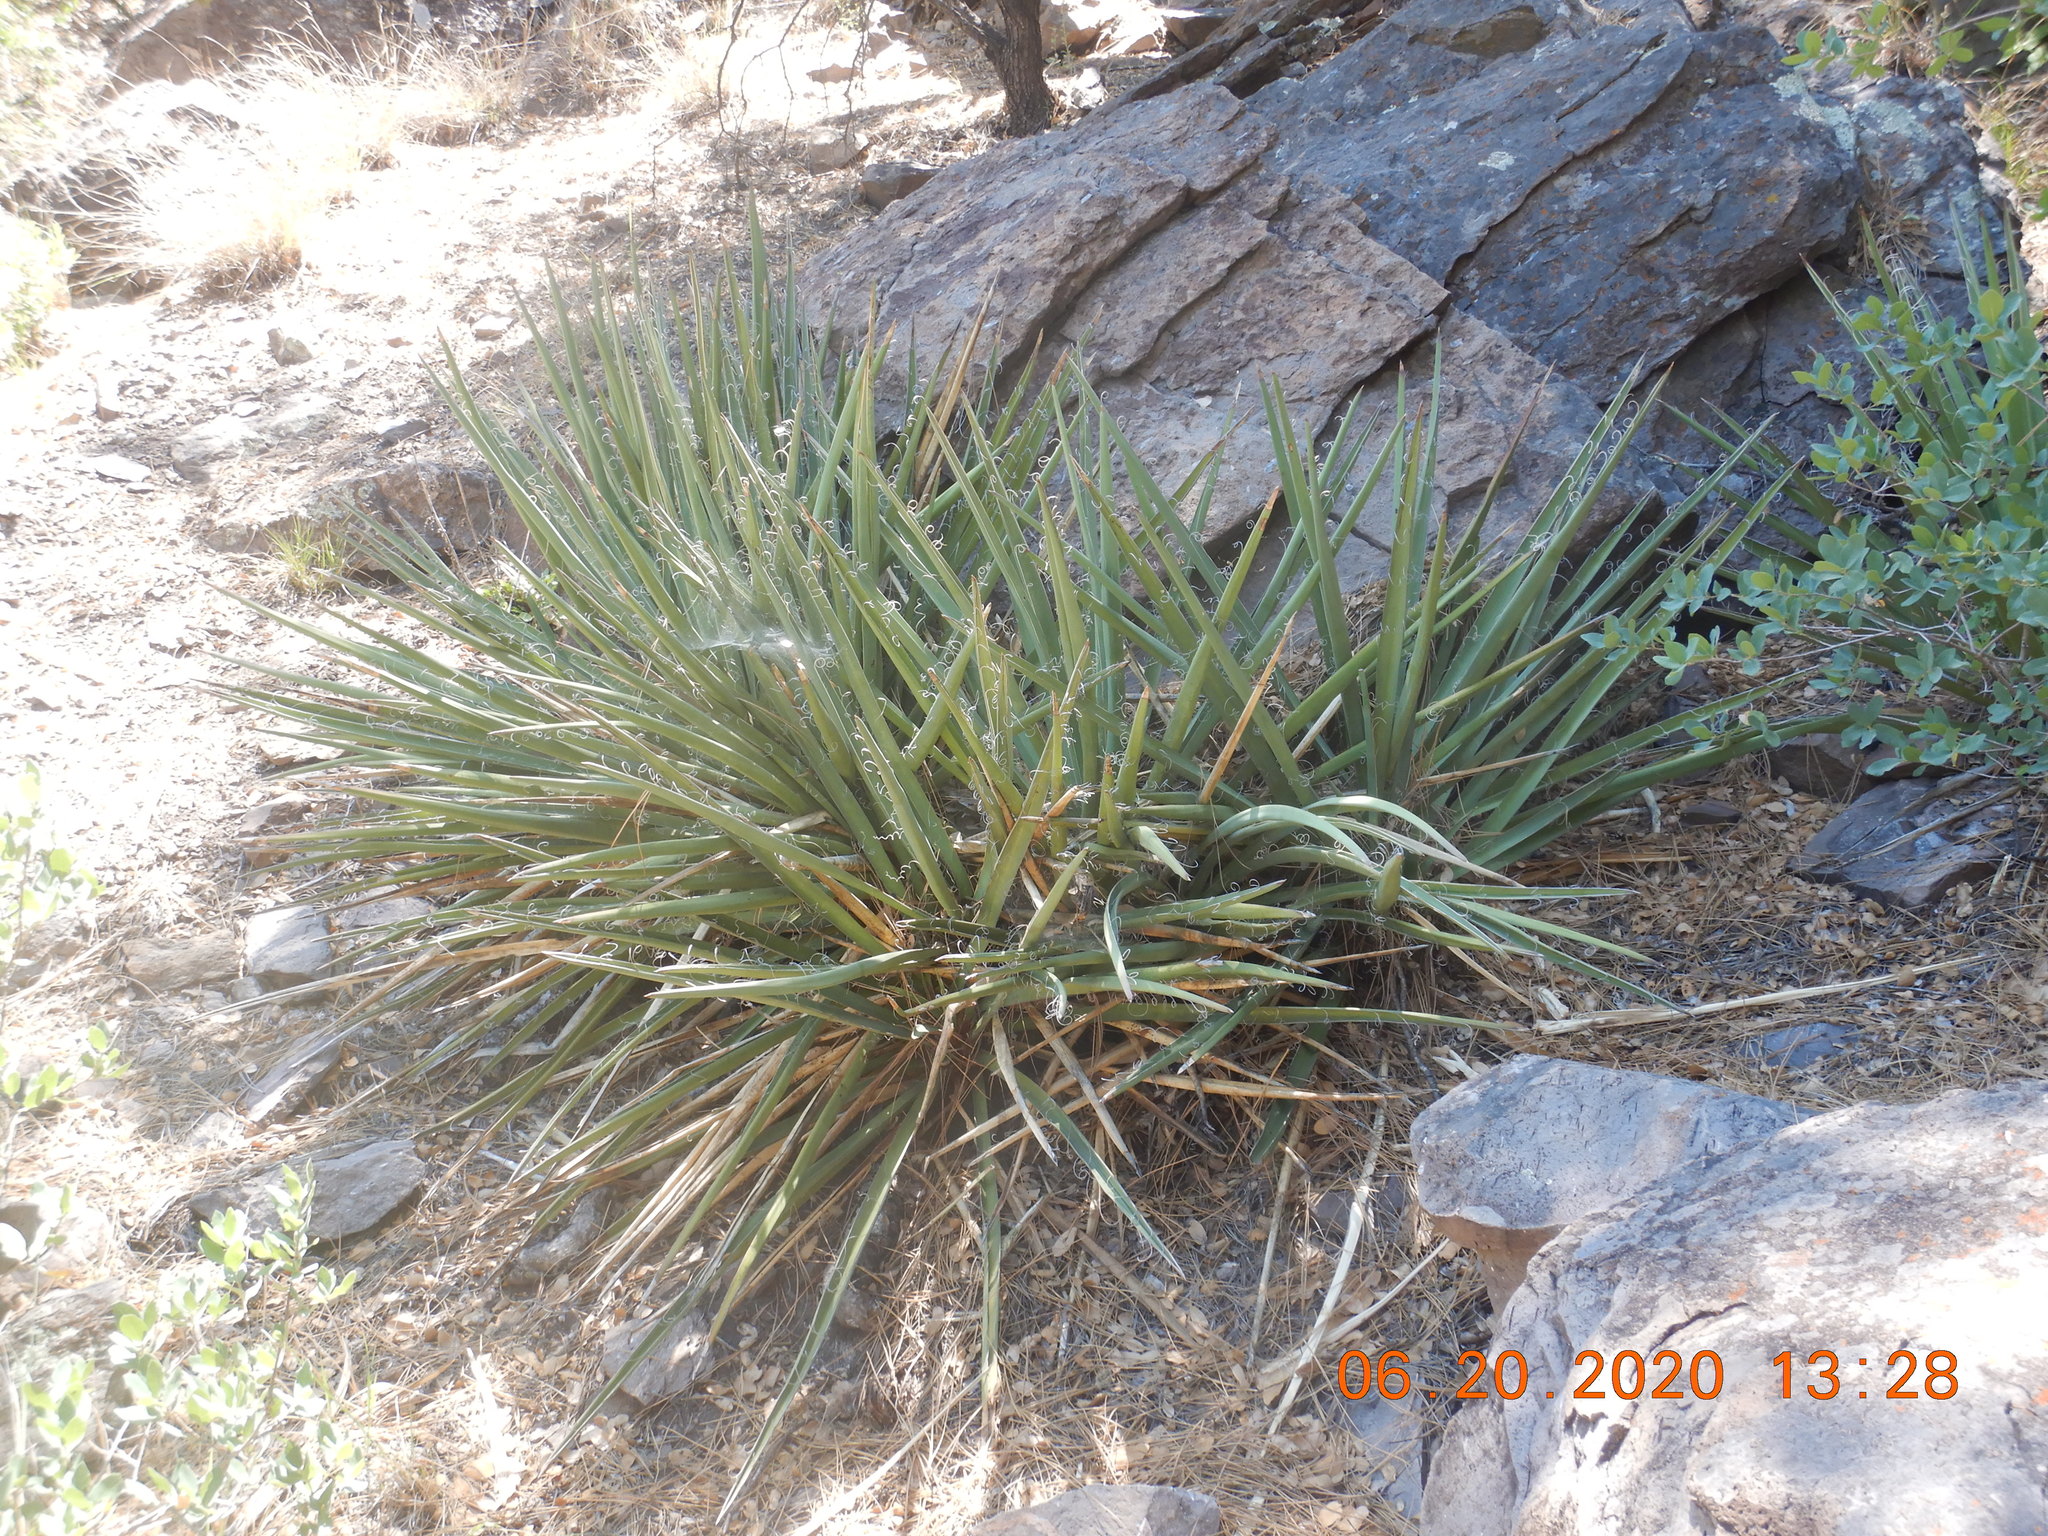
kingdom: Plantae
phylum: Tracheophyta
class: Liliopsida
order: Asparagales
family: Asparagaceae
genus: Yucca
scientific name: Yucca baccata
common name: Banana yucca
